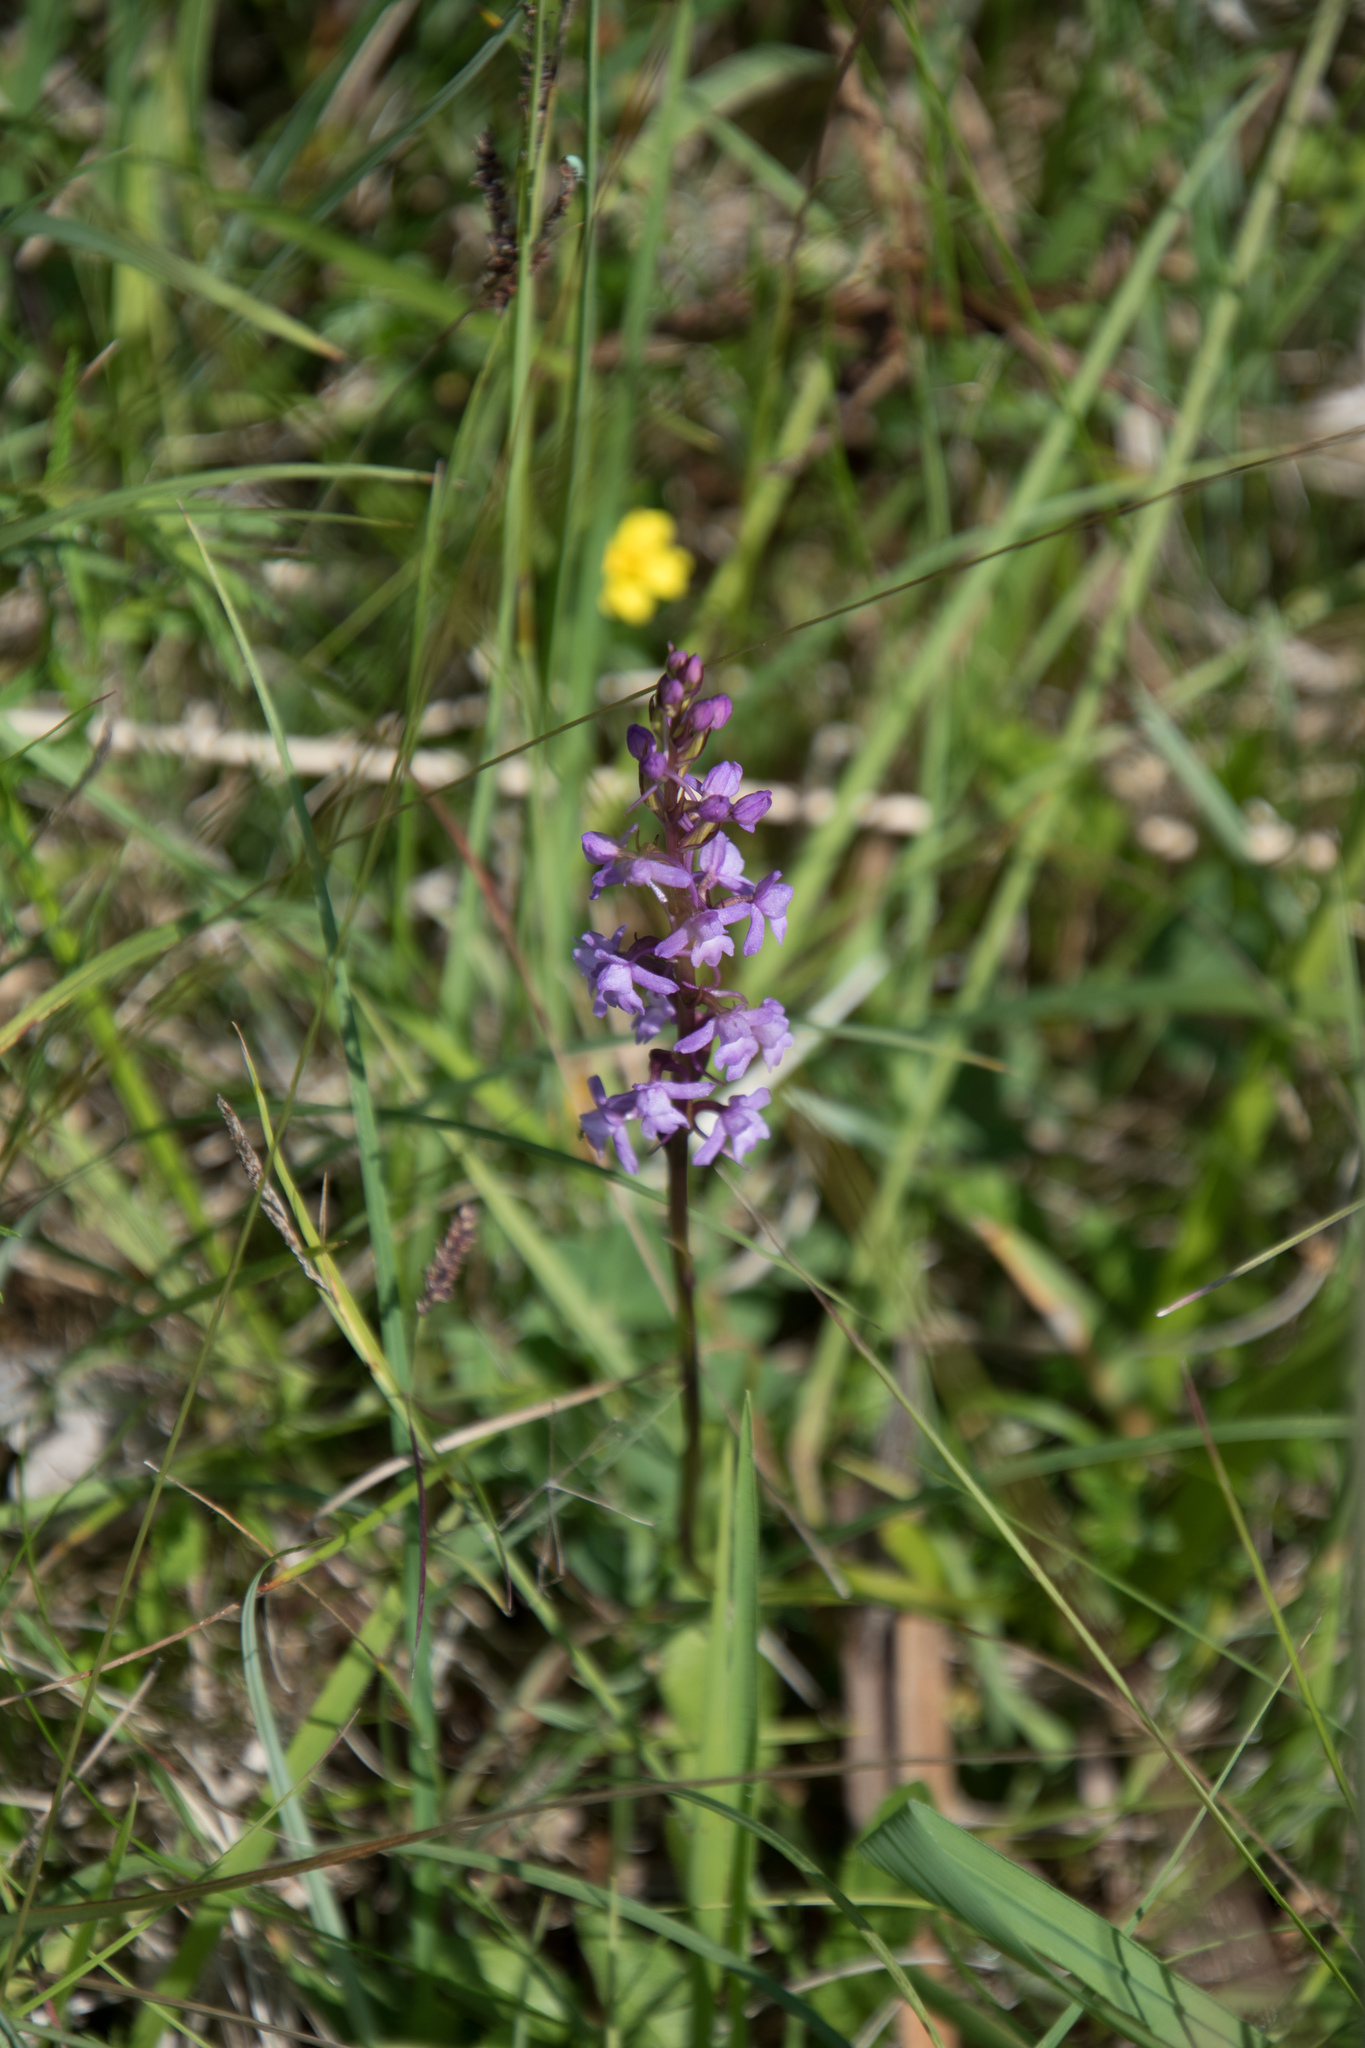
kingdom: Plantae
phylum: Tracheophyta
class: Liliopsida
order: Asparagales
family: Orchidaceae
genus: Gymnadenia
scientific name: Gymnadenia conopsea
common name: Fragrant orchid
